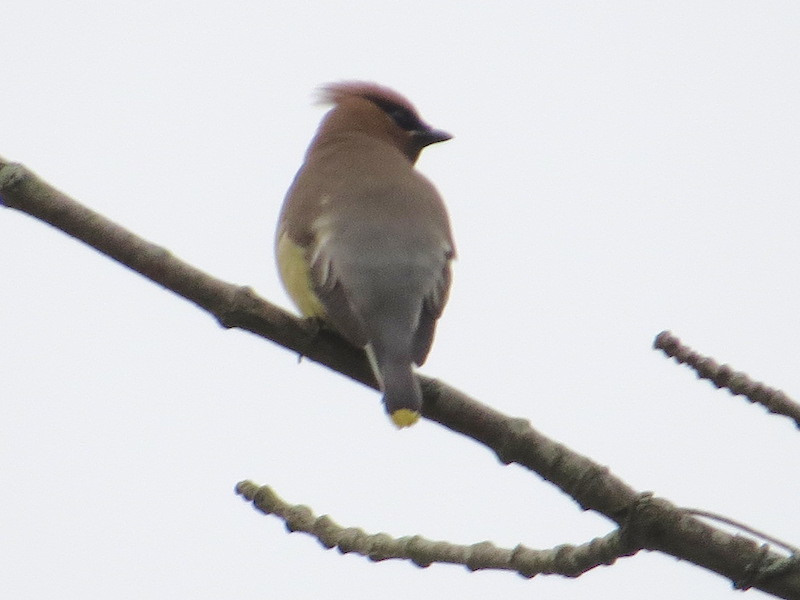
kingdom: Animalia
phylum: Chordata
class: Aves
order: Passeriformes
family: Bombycillidae
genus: Bombycilla
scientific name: Bombycilla cedrorum
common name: Cedar waxwing
